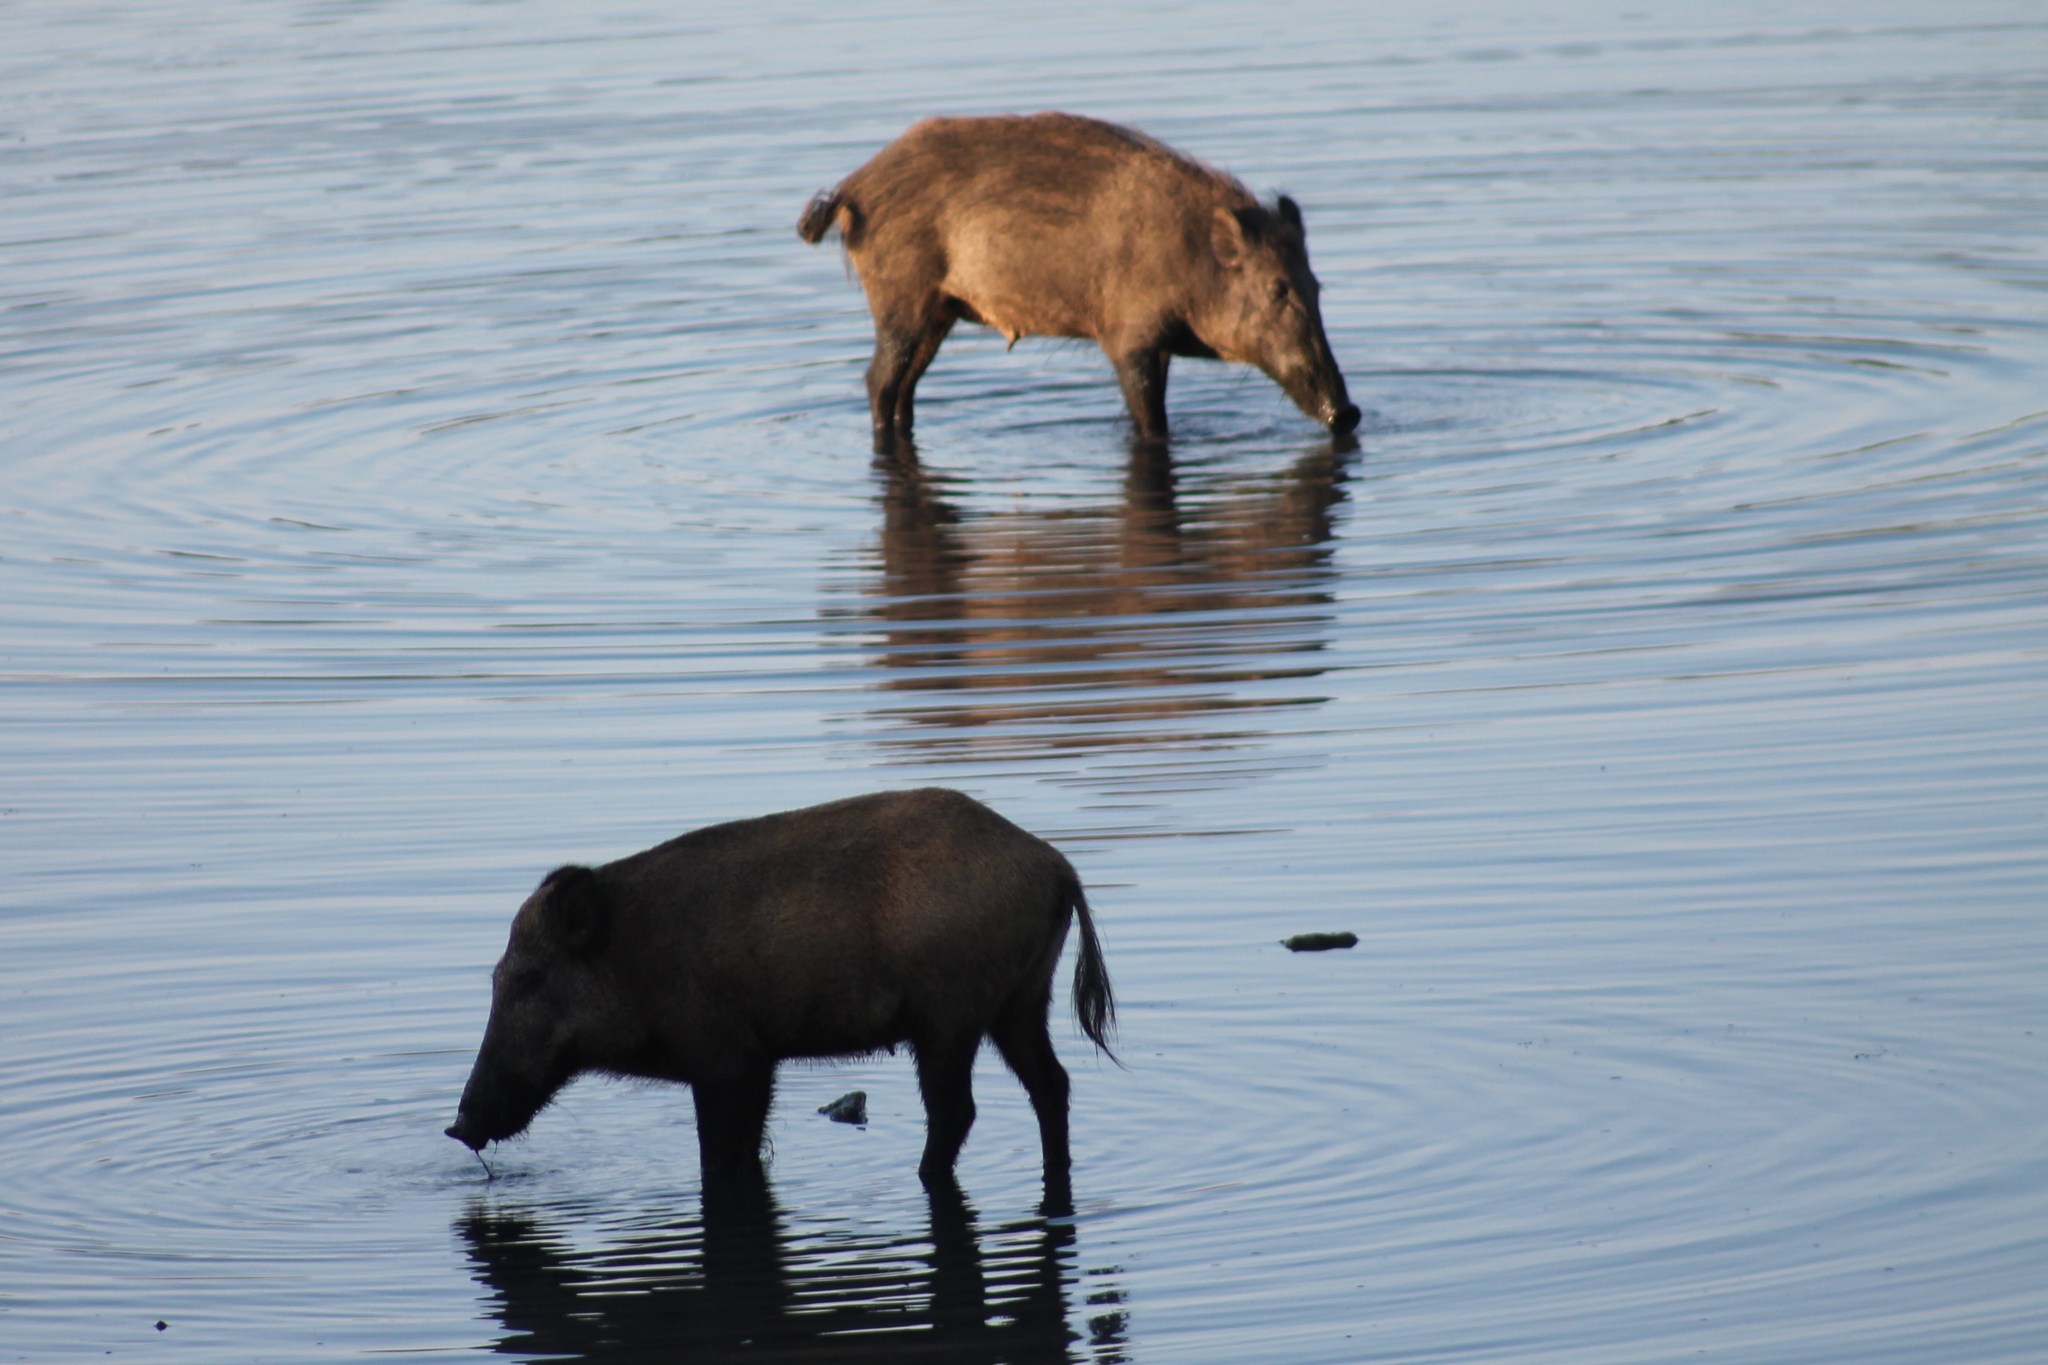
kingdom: Animalia
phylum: Chordata
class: Mammalia
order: Artiodactyla
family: Suidae
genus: Sus
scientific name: Sus scrofa
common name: Wild boar
